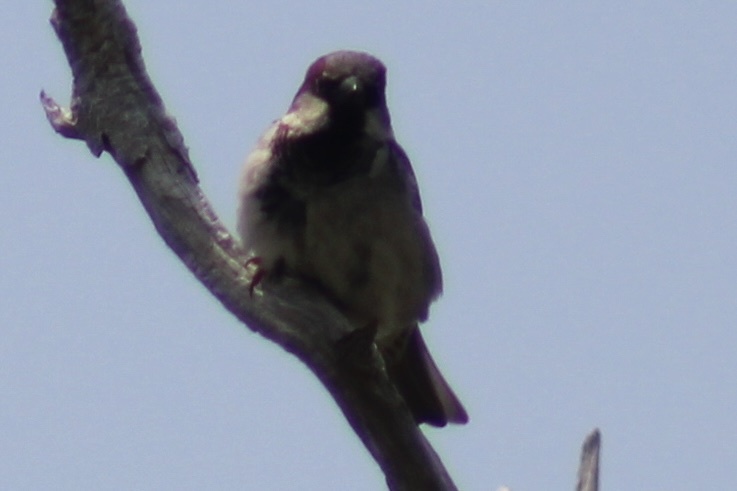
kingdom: Animalia
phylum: Chordata
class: Aves
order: Passeriformes
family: Passeridae
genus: Passer
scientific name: Passer domesticus
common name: House sparrow
